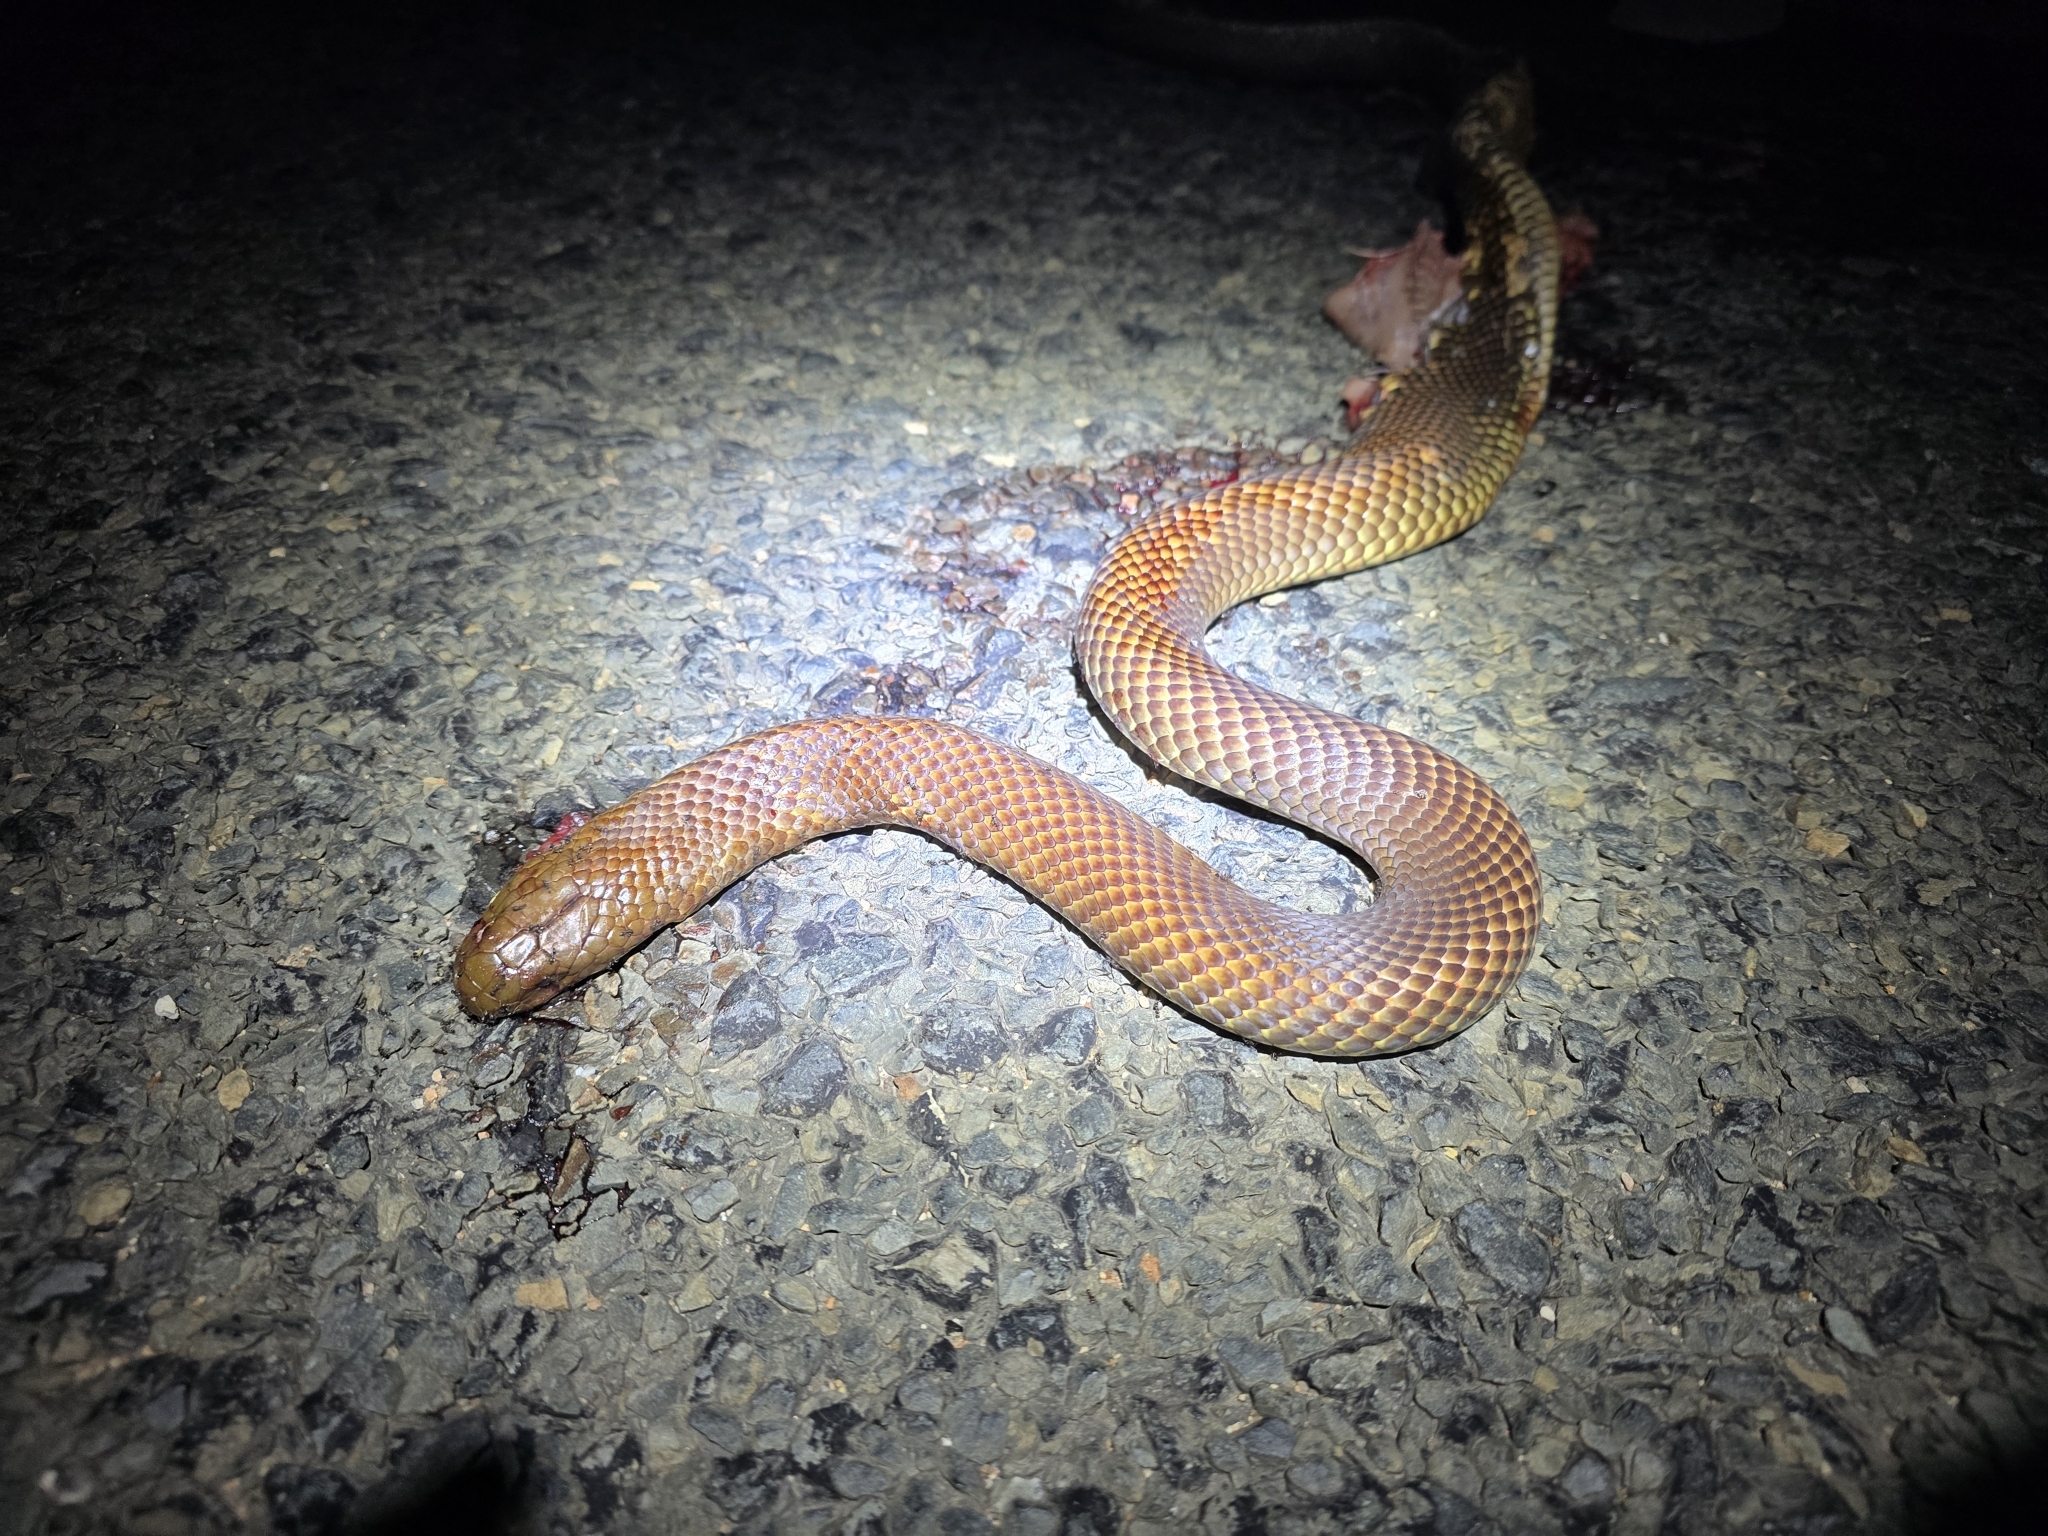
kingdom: Animalia
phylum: Chordata
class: Squamata
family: Elapidae
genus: Pseudechis
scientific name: Pseudechis australis
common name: King brown snake
